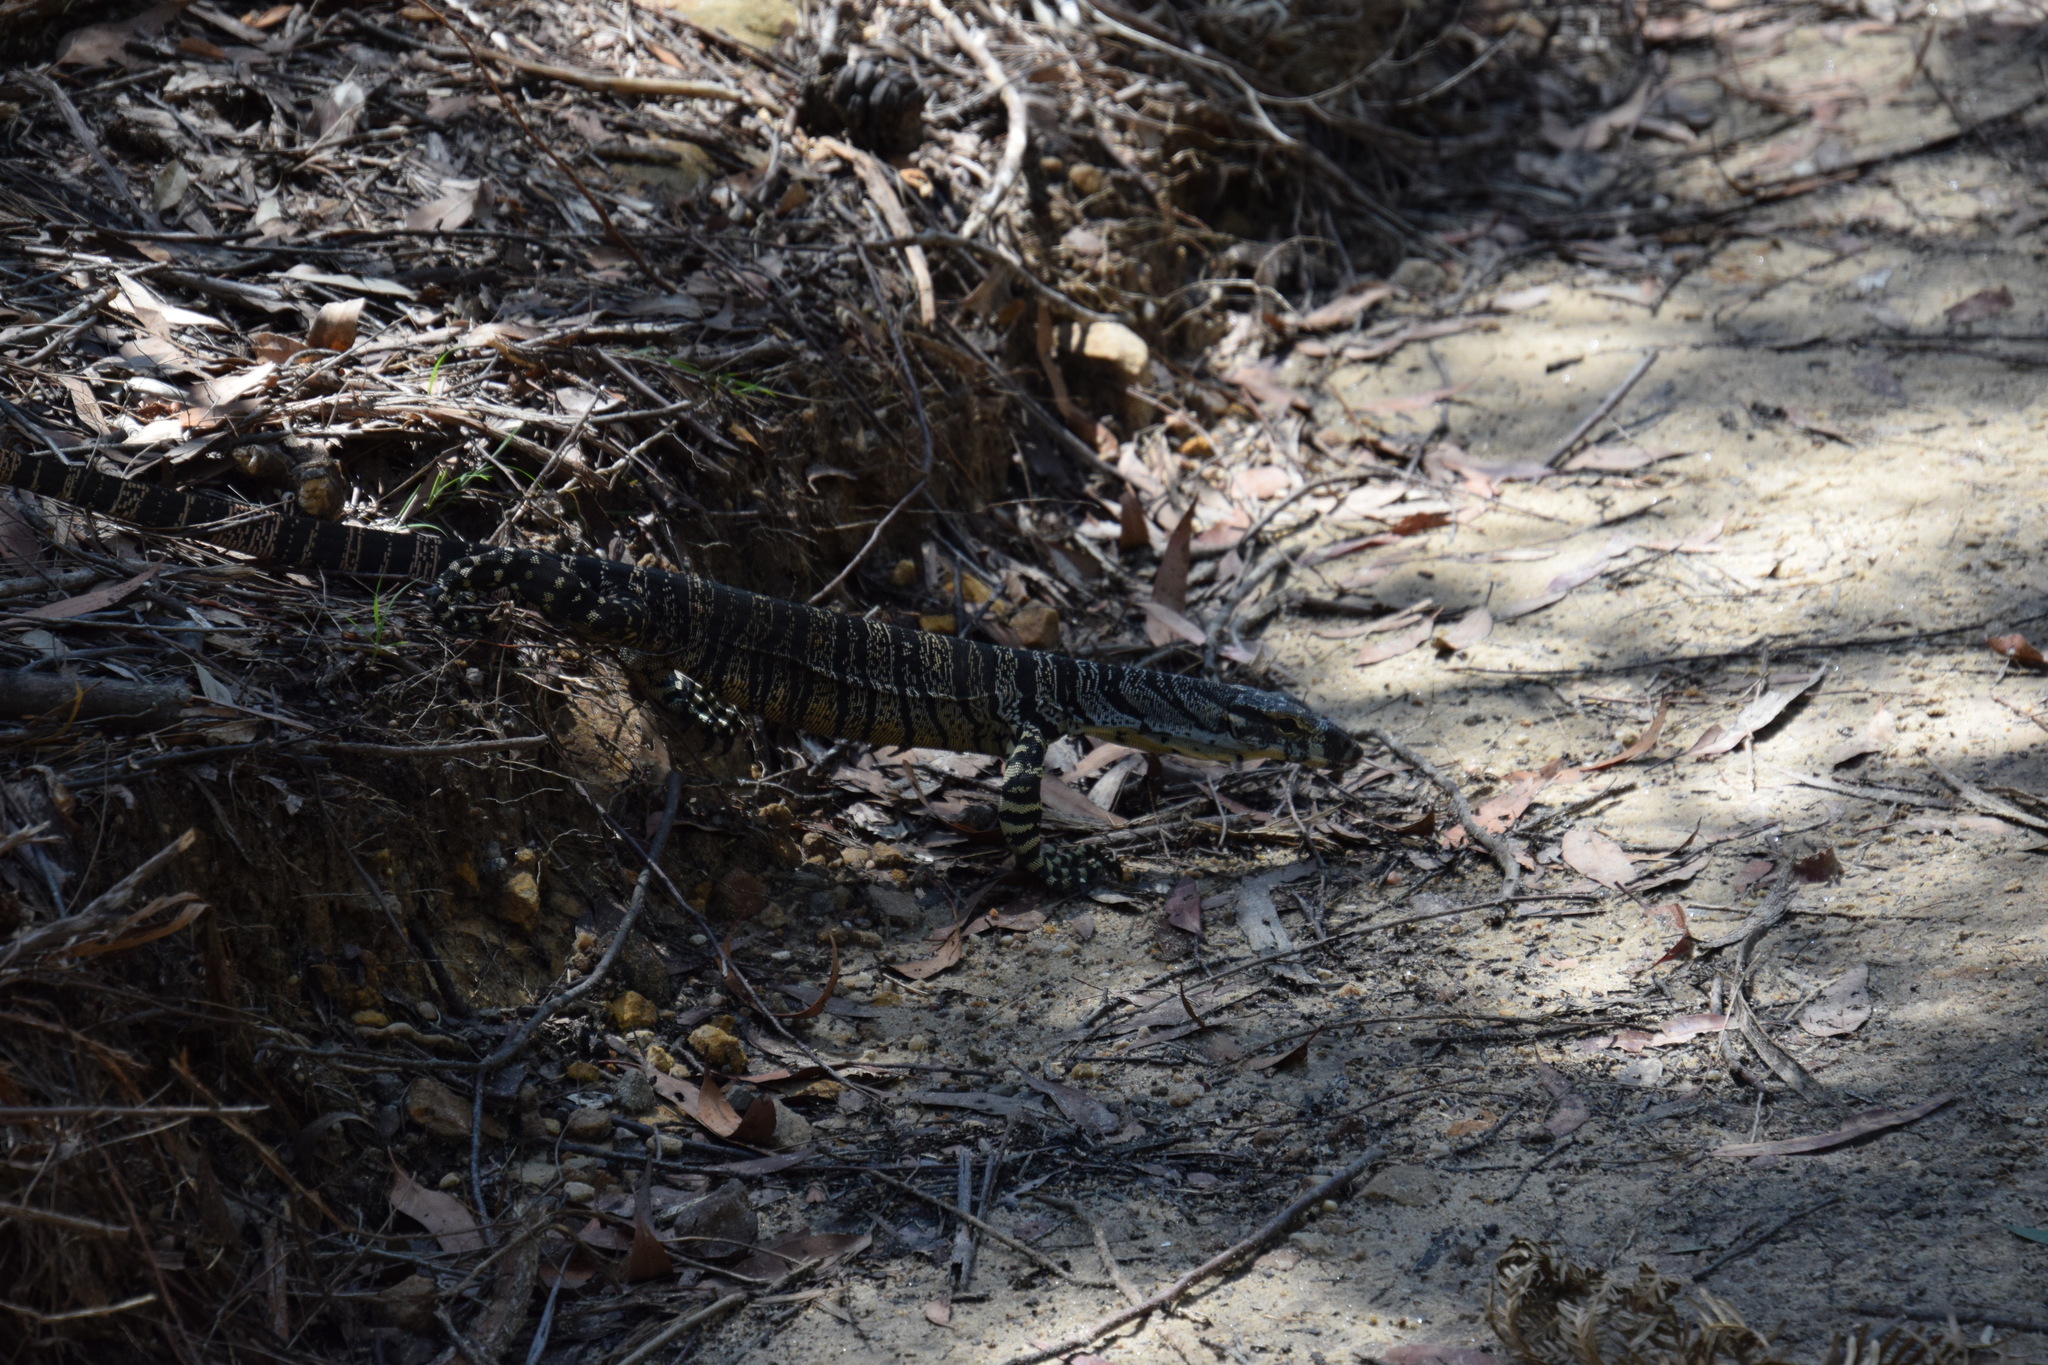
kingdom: Animalia
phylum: Chordata
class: Squamata
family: Varanidae
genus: Varanus
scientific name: Varanus varius
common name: Lace monitor
